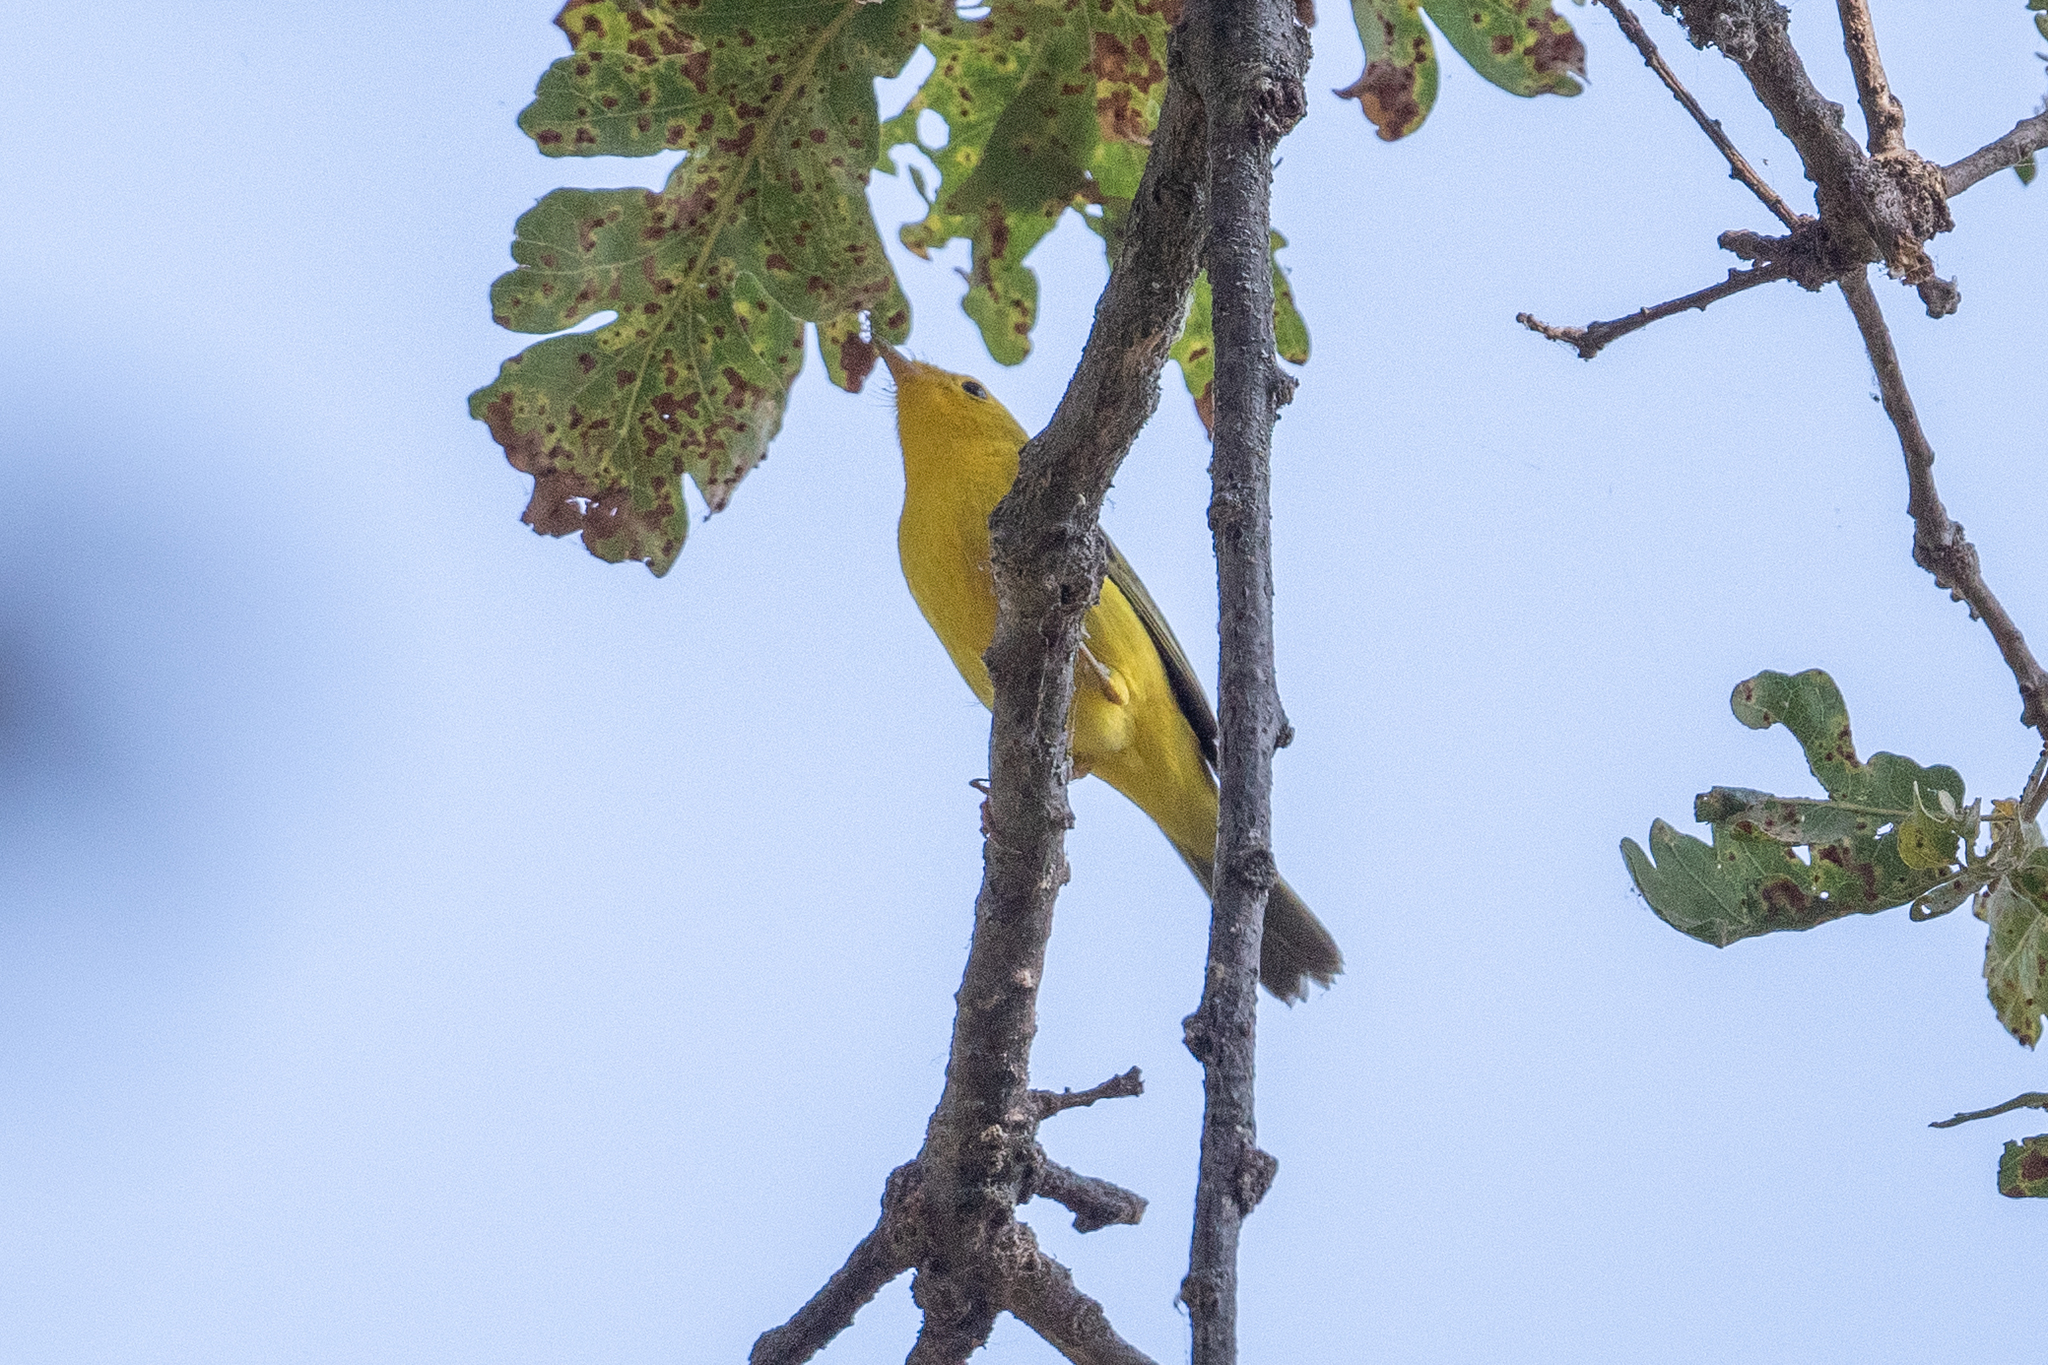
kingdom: Animalia
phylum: Chordata
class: Aves
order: Passeriformes
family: Parulidae
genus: Cardellina
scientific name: Cardellina pusilla
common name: Wilson's warbler
